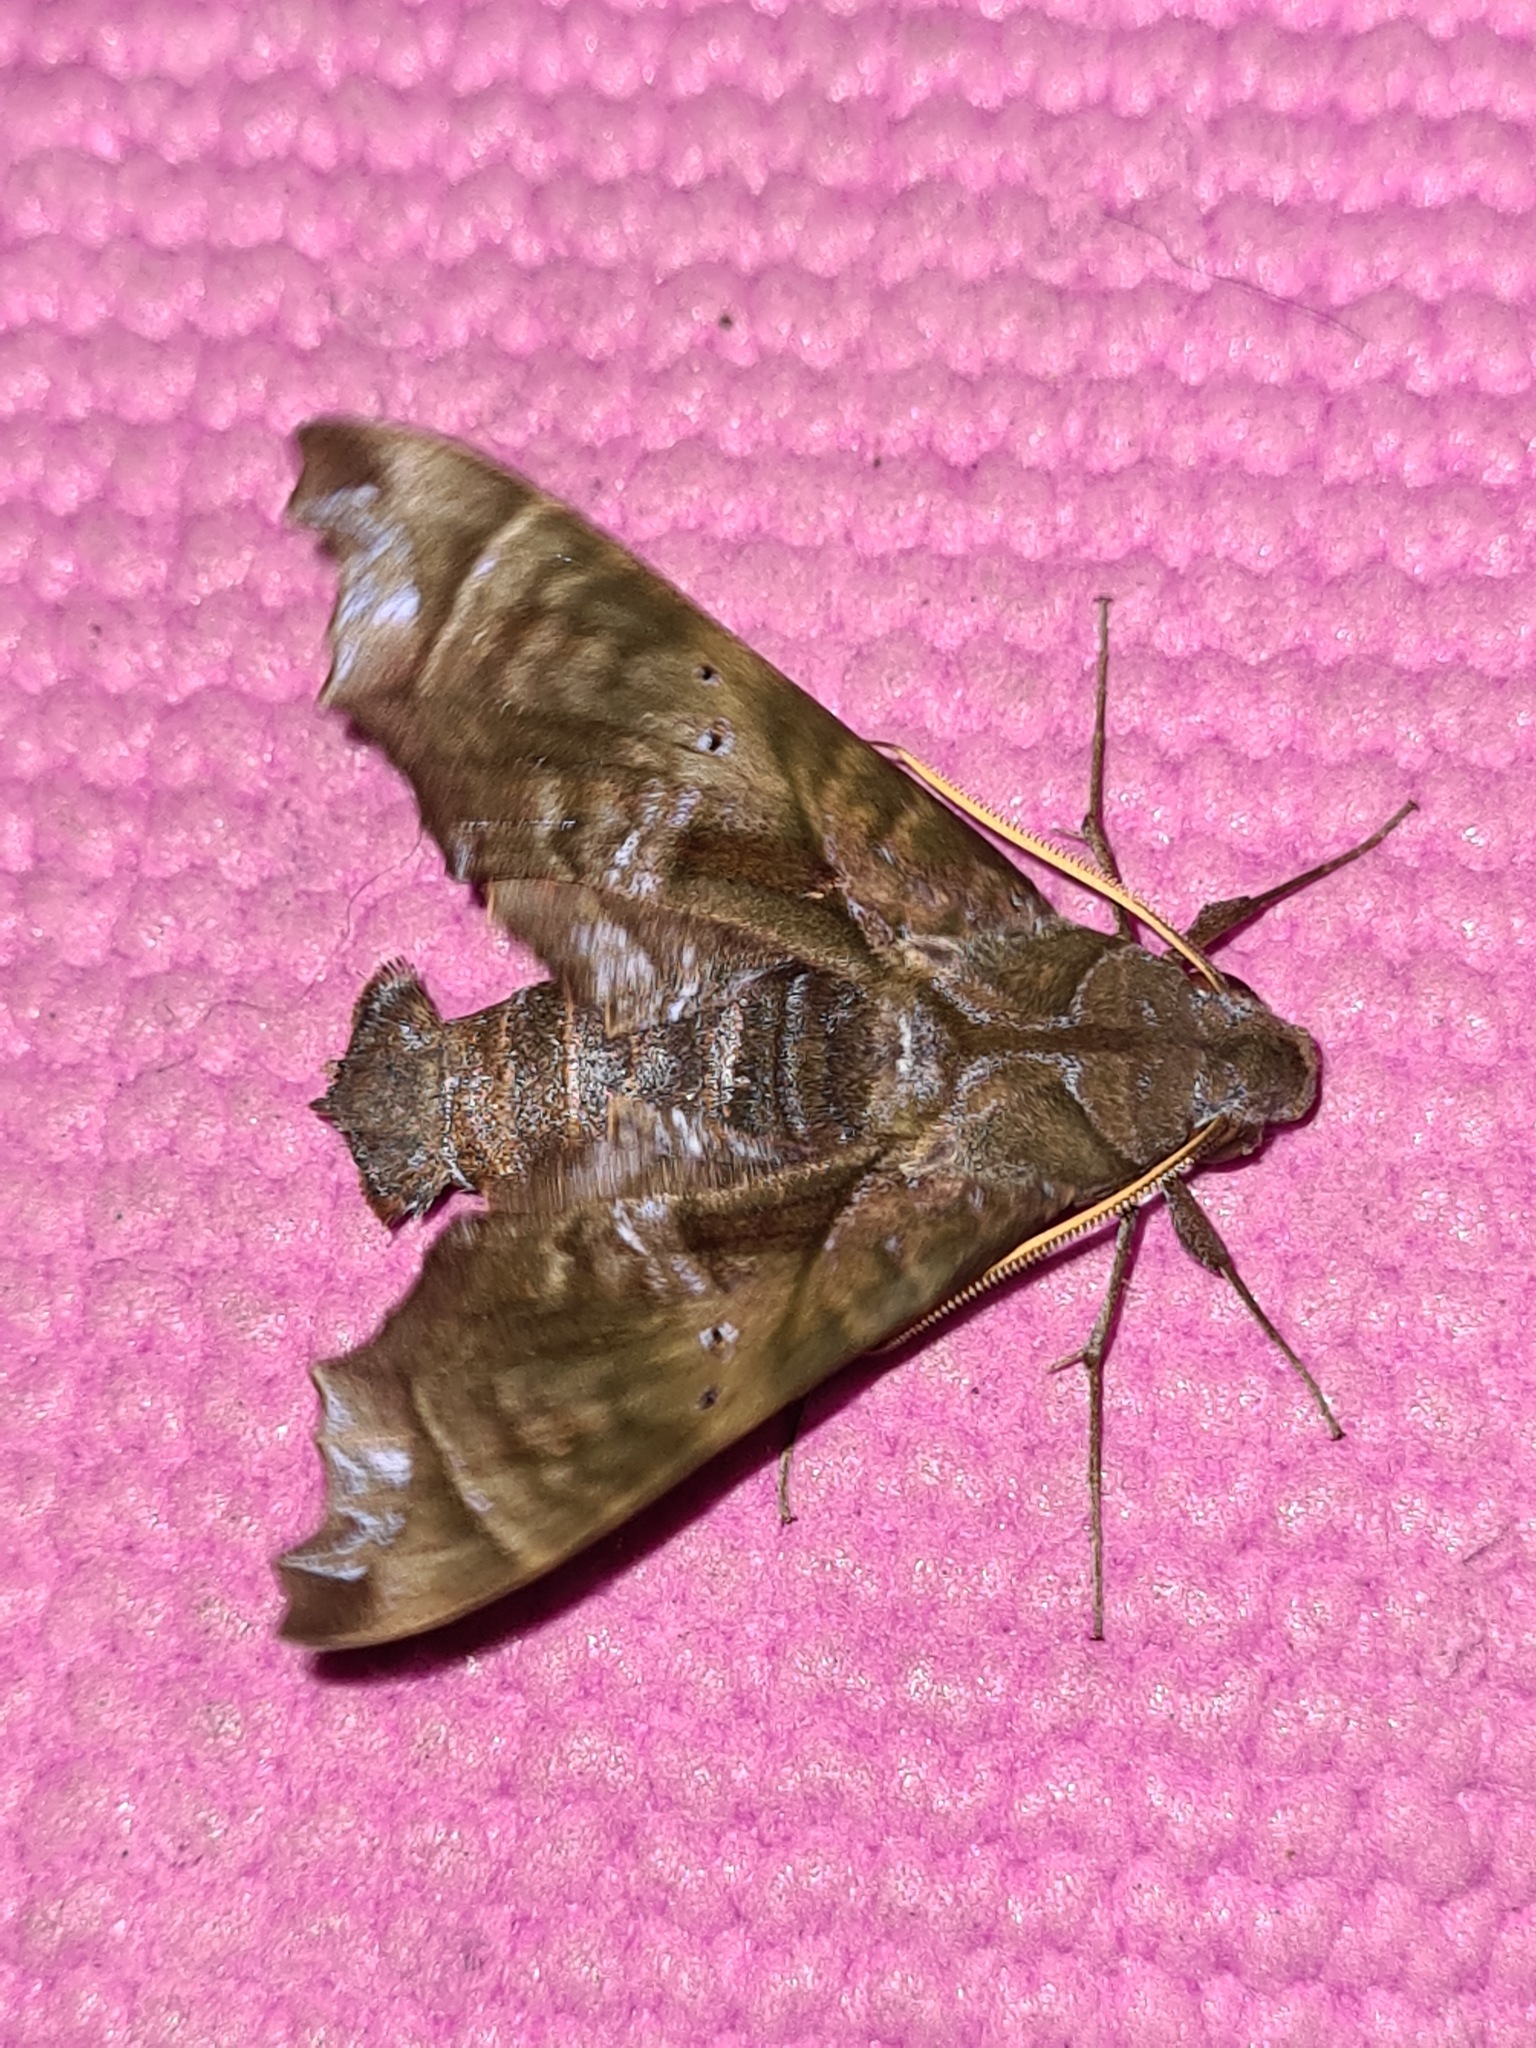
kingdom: Animalia
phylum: Arthropoda
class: Insecta
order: Lepidoptera
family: Sphingidae
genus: Nyceryx
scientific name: Nyceryx coffaeae
